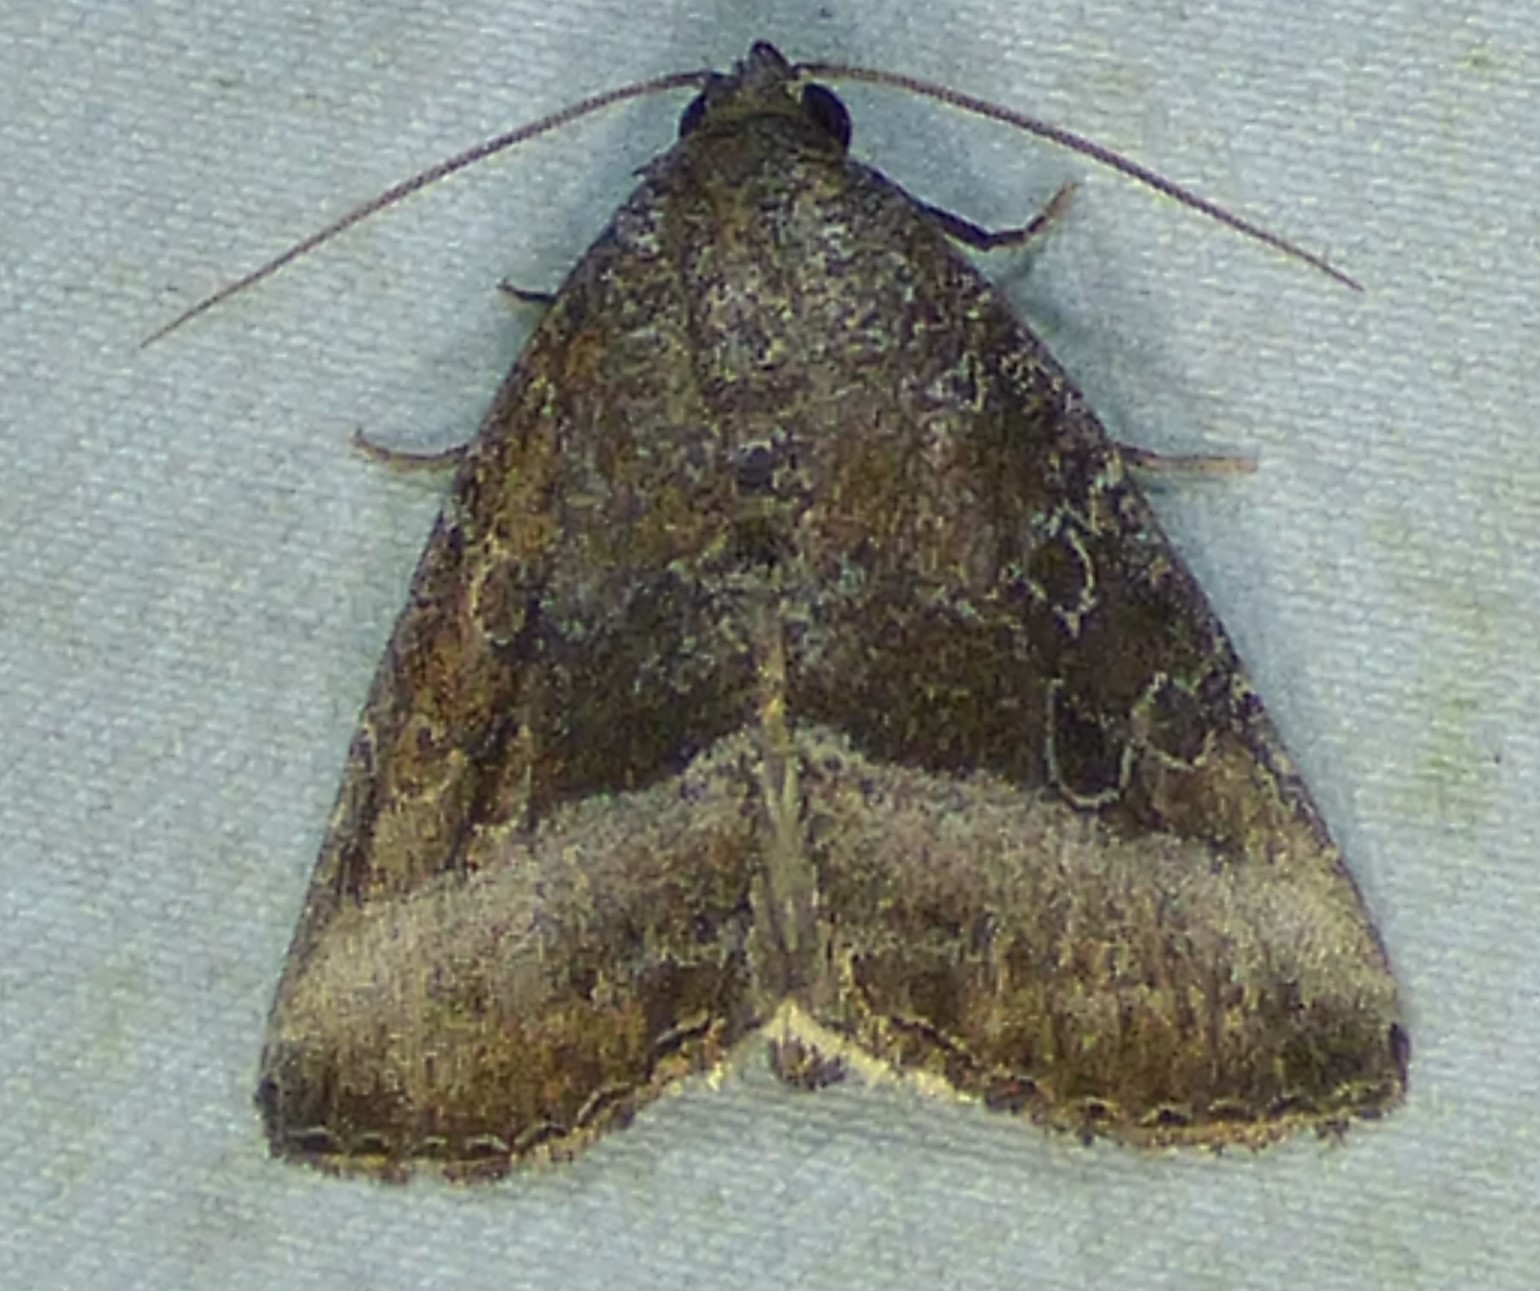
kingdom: Animalia
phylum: Arthropoda
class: Insecta
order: Lepidoptera
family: Noctuidae
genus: Ogdoconta
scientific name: Ogdoconta cinereola
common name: Common pinkband
